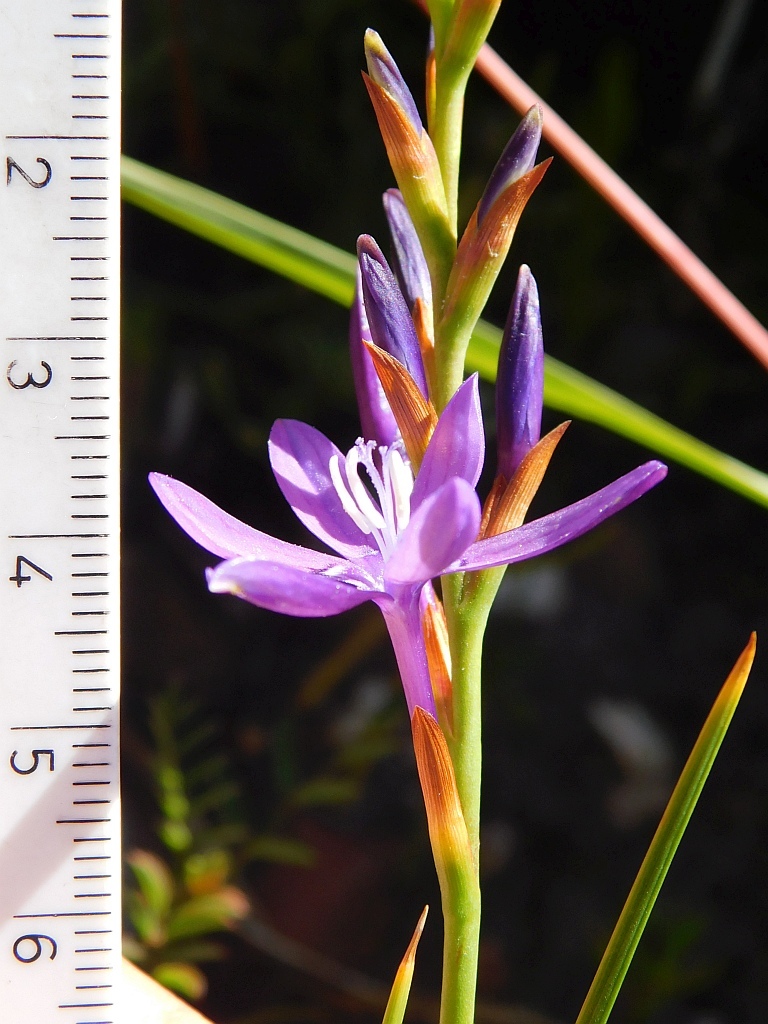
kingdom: Plantae
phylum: Tracheophyta
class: Liliopsida
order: Asparagales
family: Iridaceae
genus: Thereianthus
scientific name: Thereianthus bracteolatus
